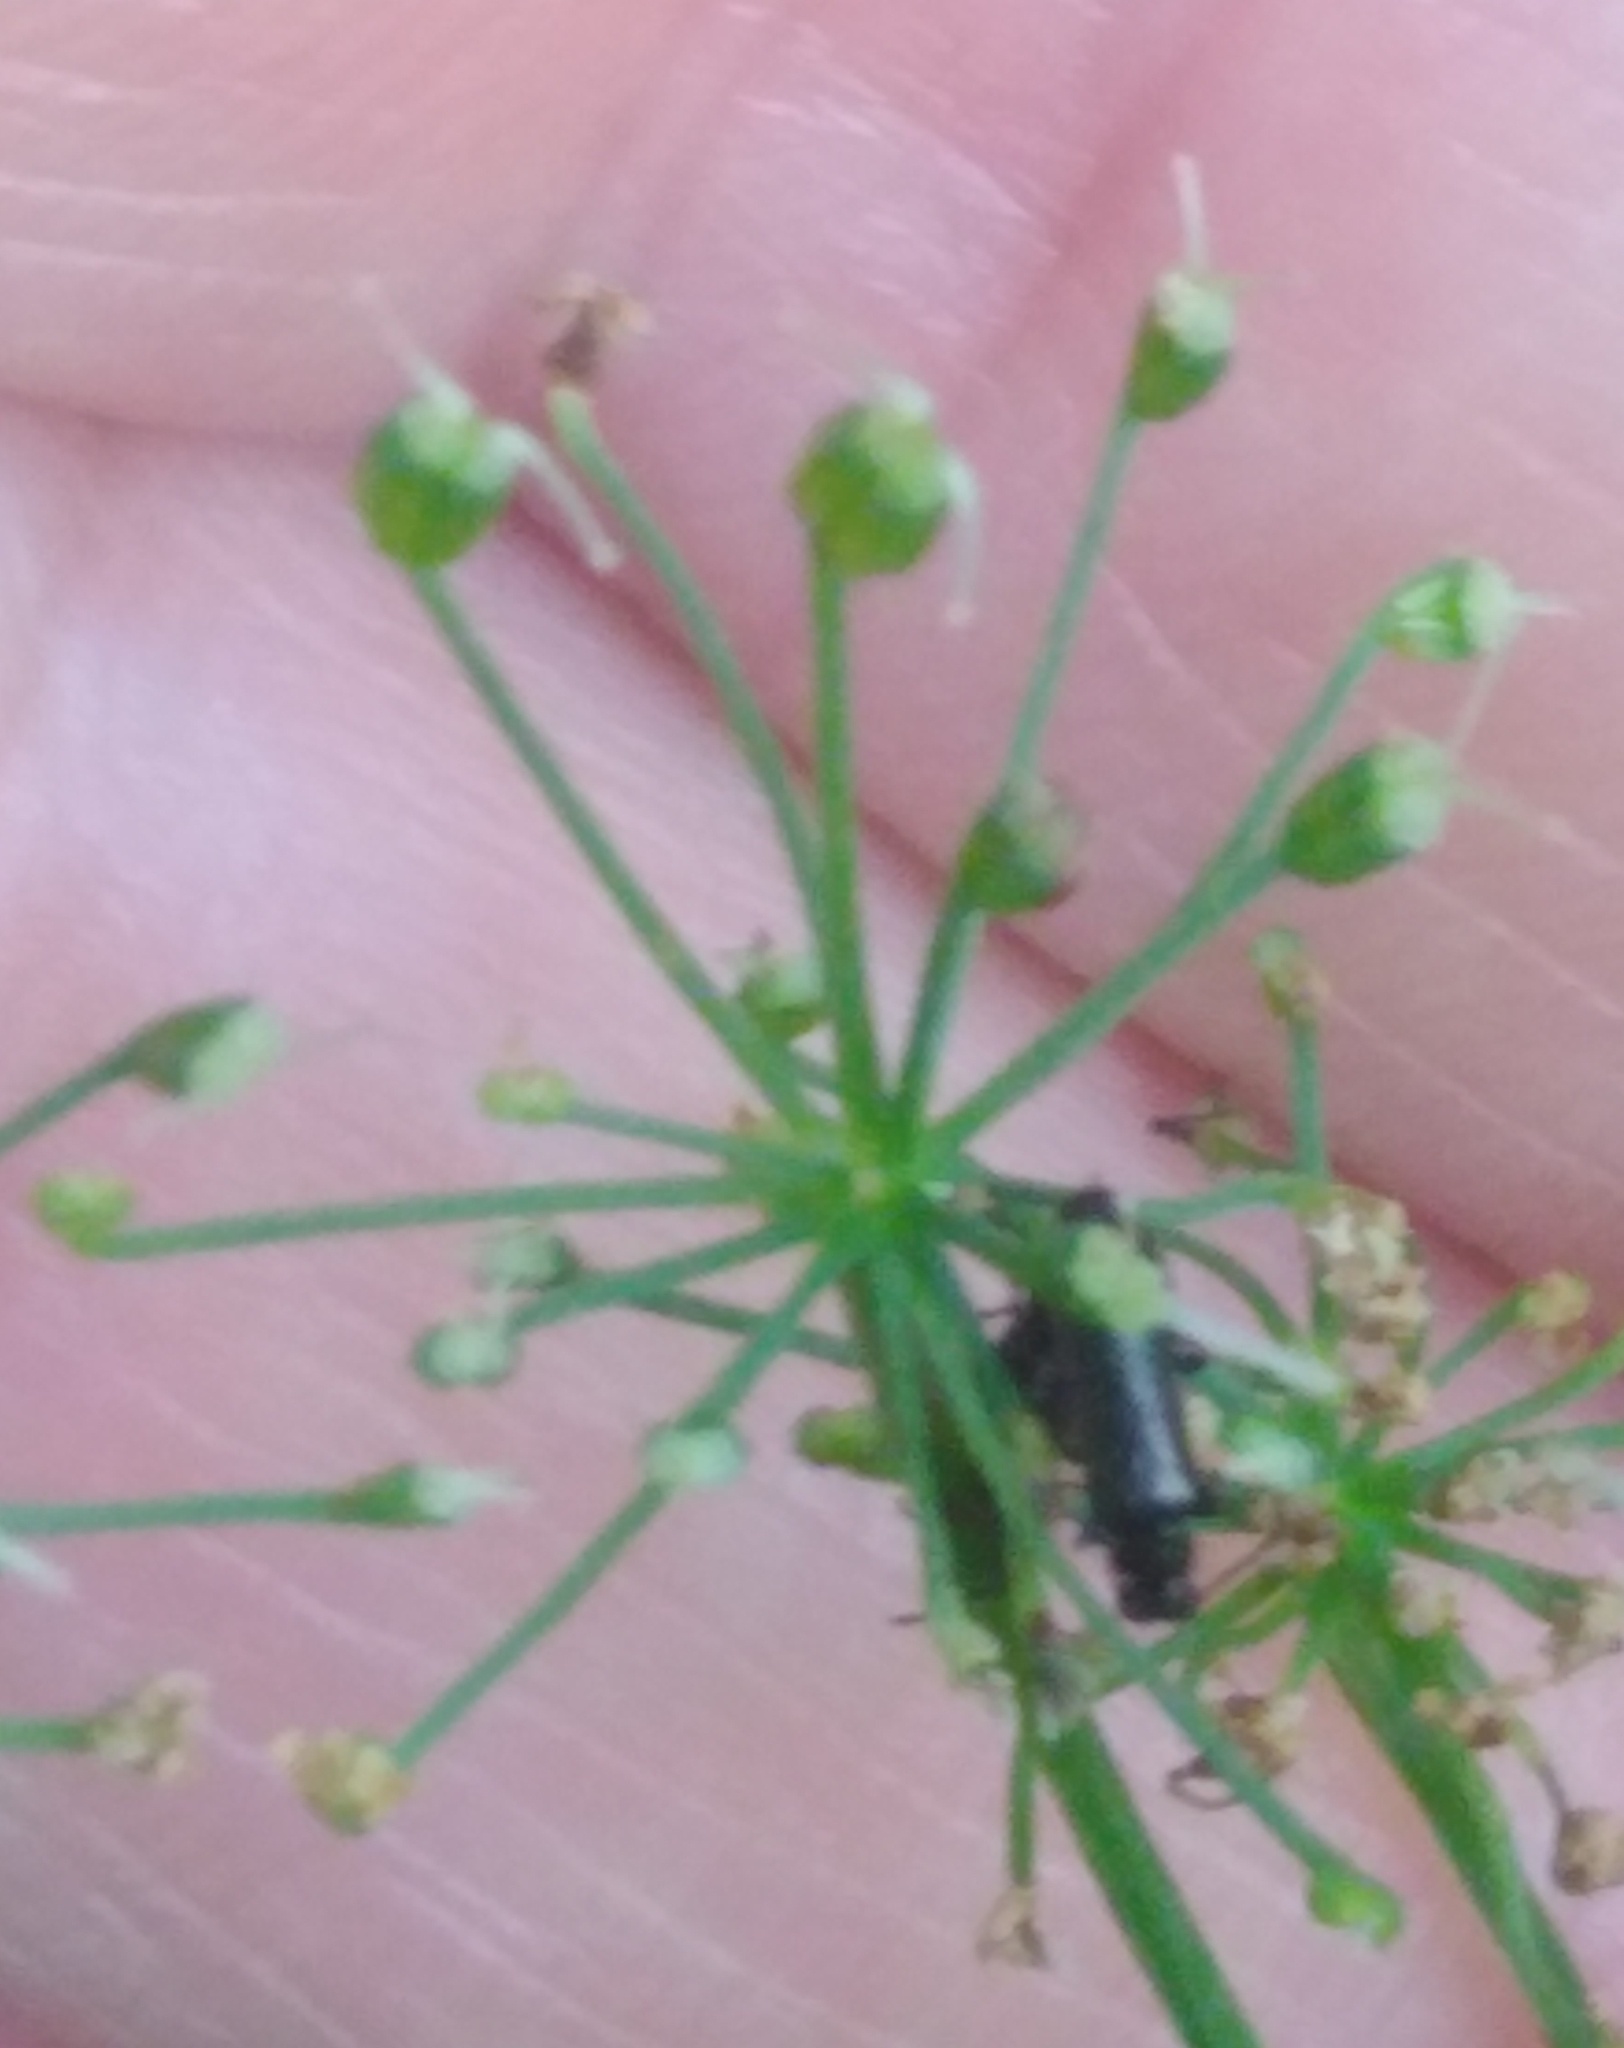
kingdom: Plantae
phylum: Tracheophyta
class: Magnoliopsida
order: Apiales
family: Apiaceae
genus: Aegopodium
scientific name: Aegopodium podagraria
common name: Ground-elder
